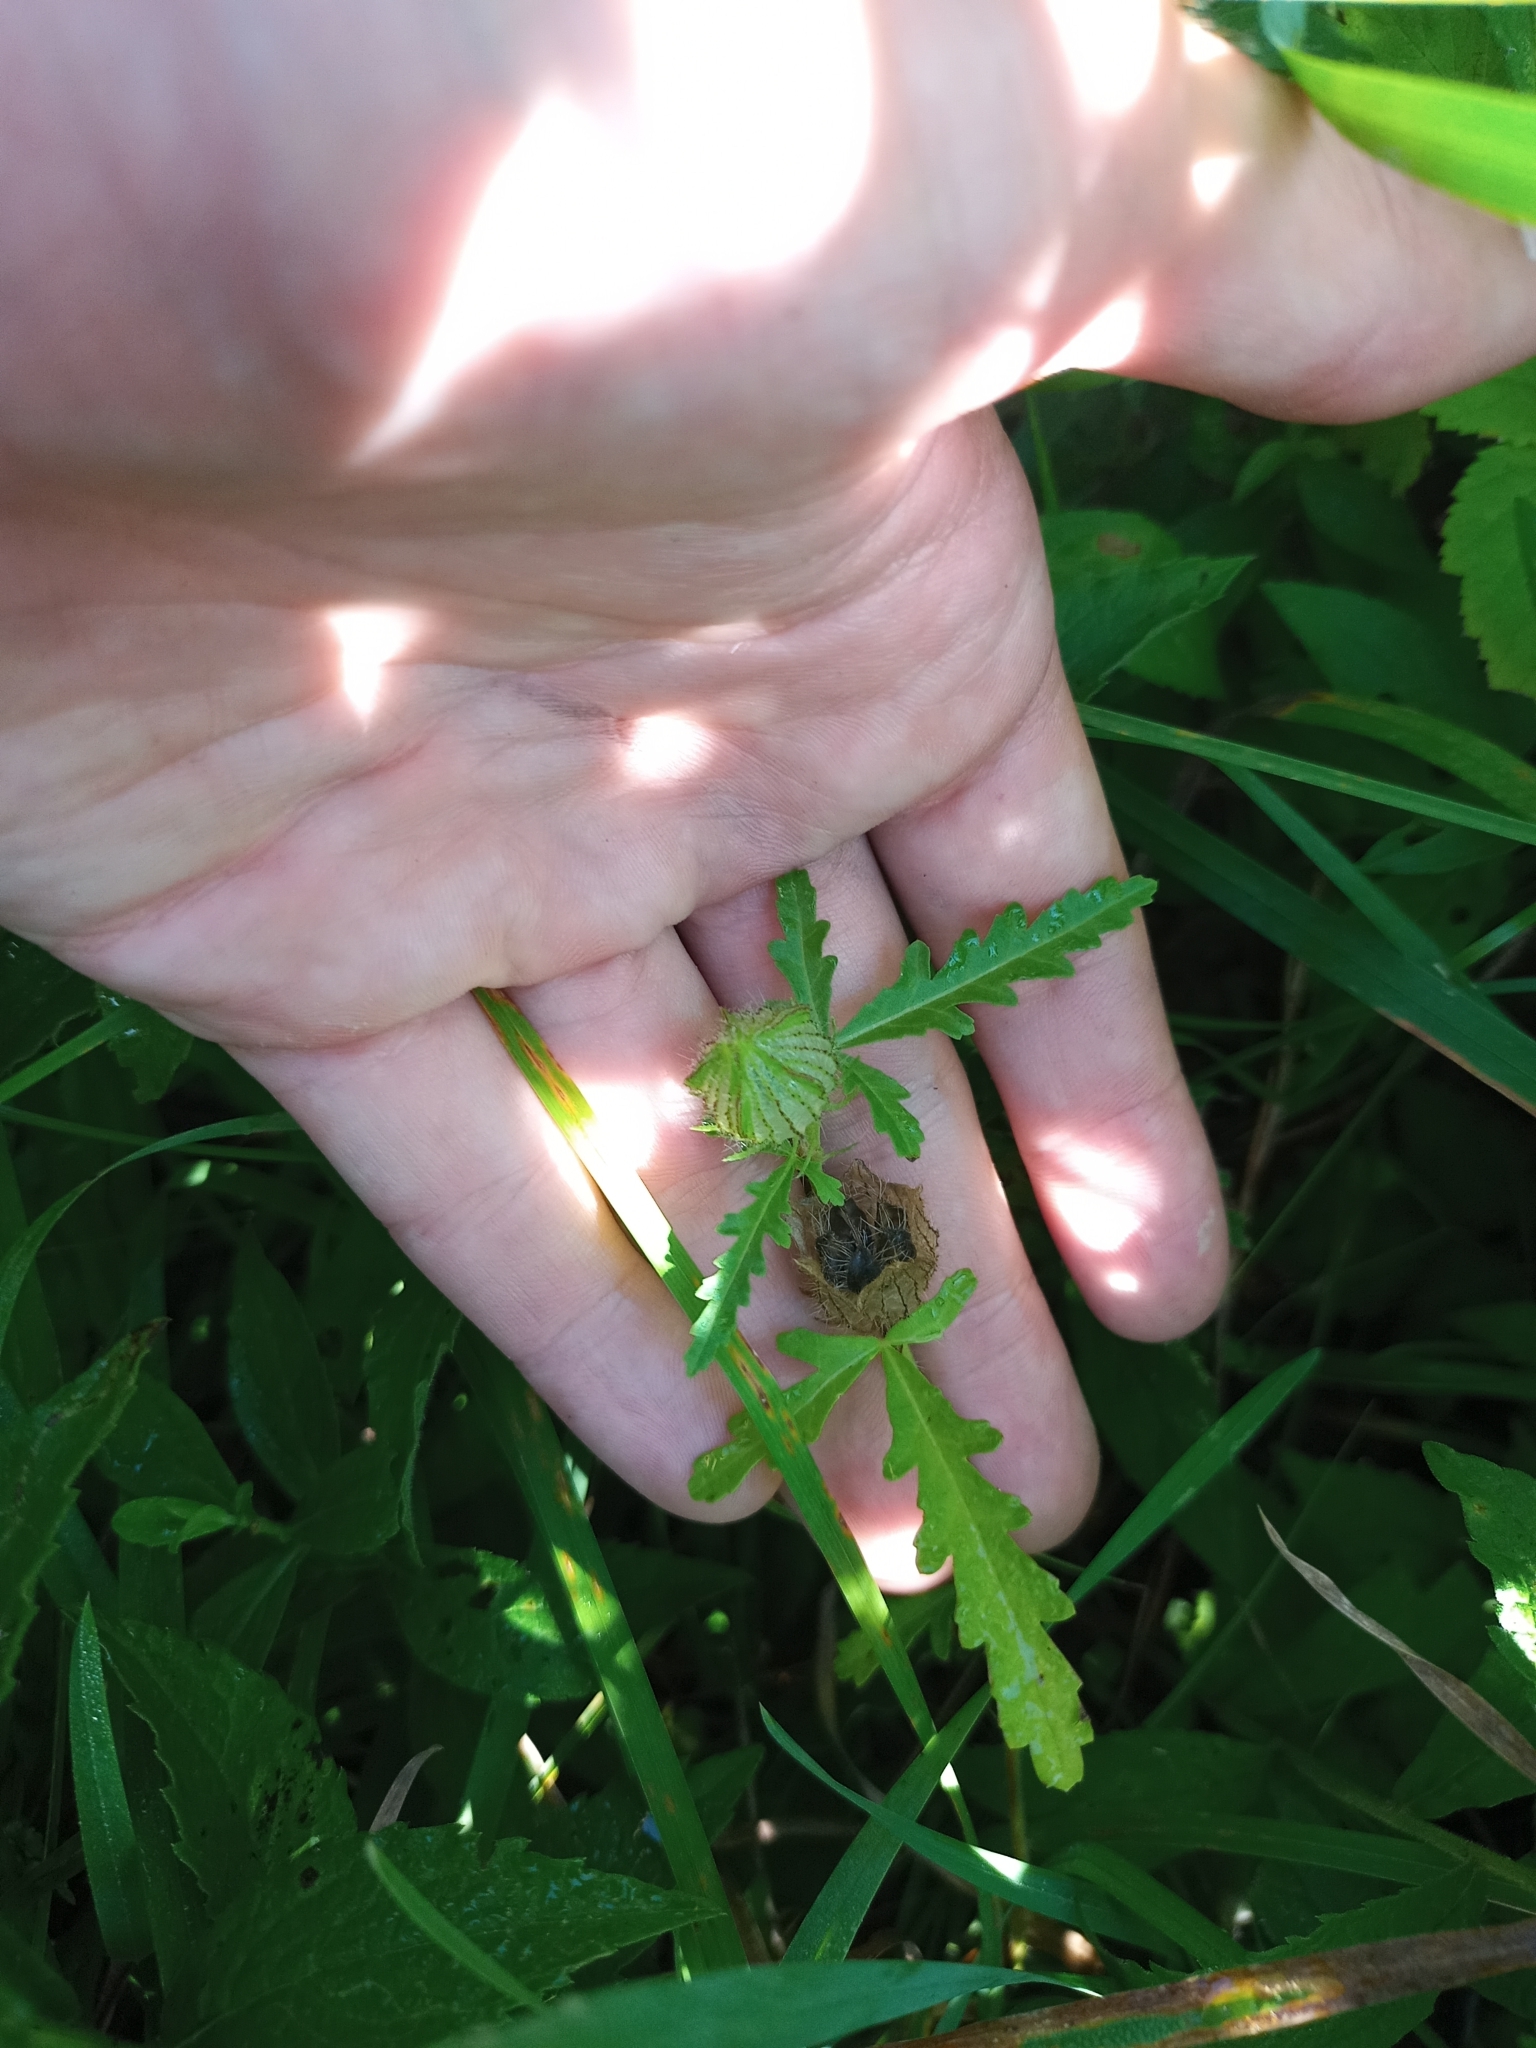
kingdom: Plantae
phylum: Tracheophyta
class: Magnoliopsida
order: Malvales
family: Malvaceae
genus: Hibiscus
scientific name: Hibiscus trionum
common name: Bladder ketmia
